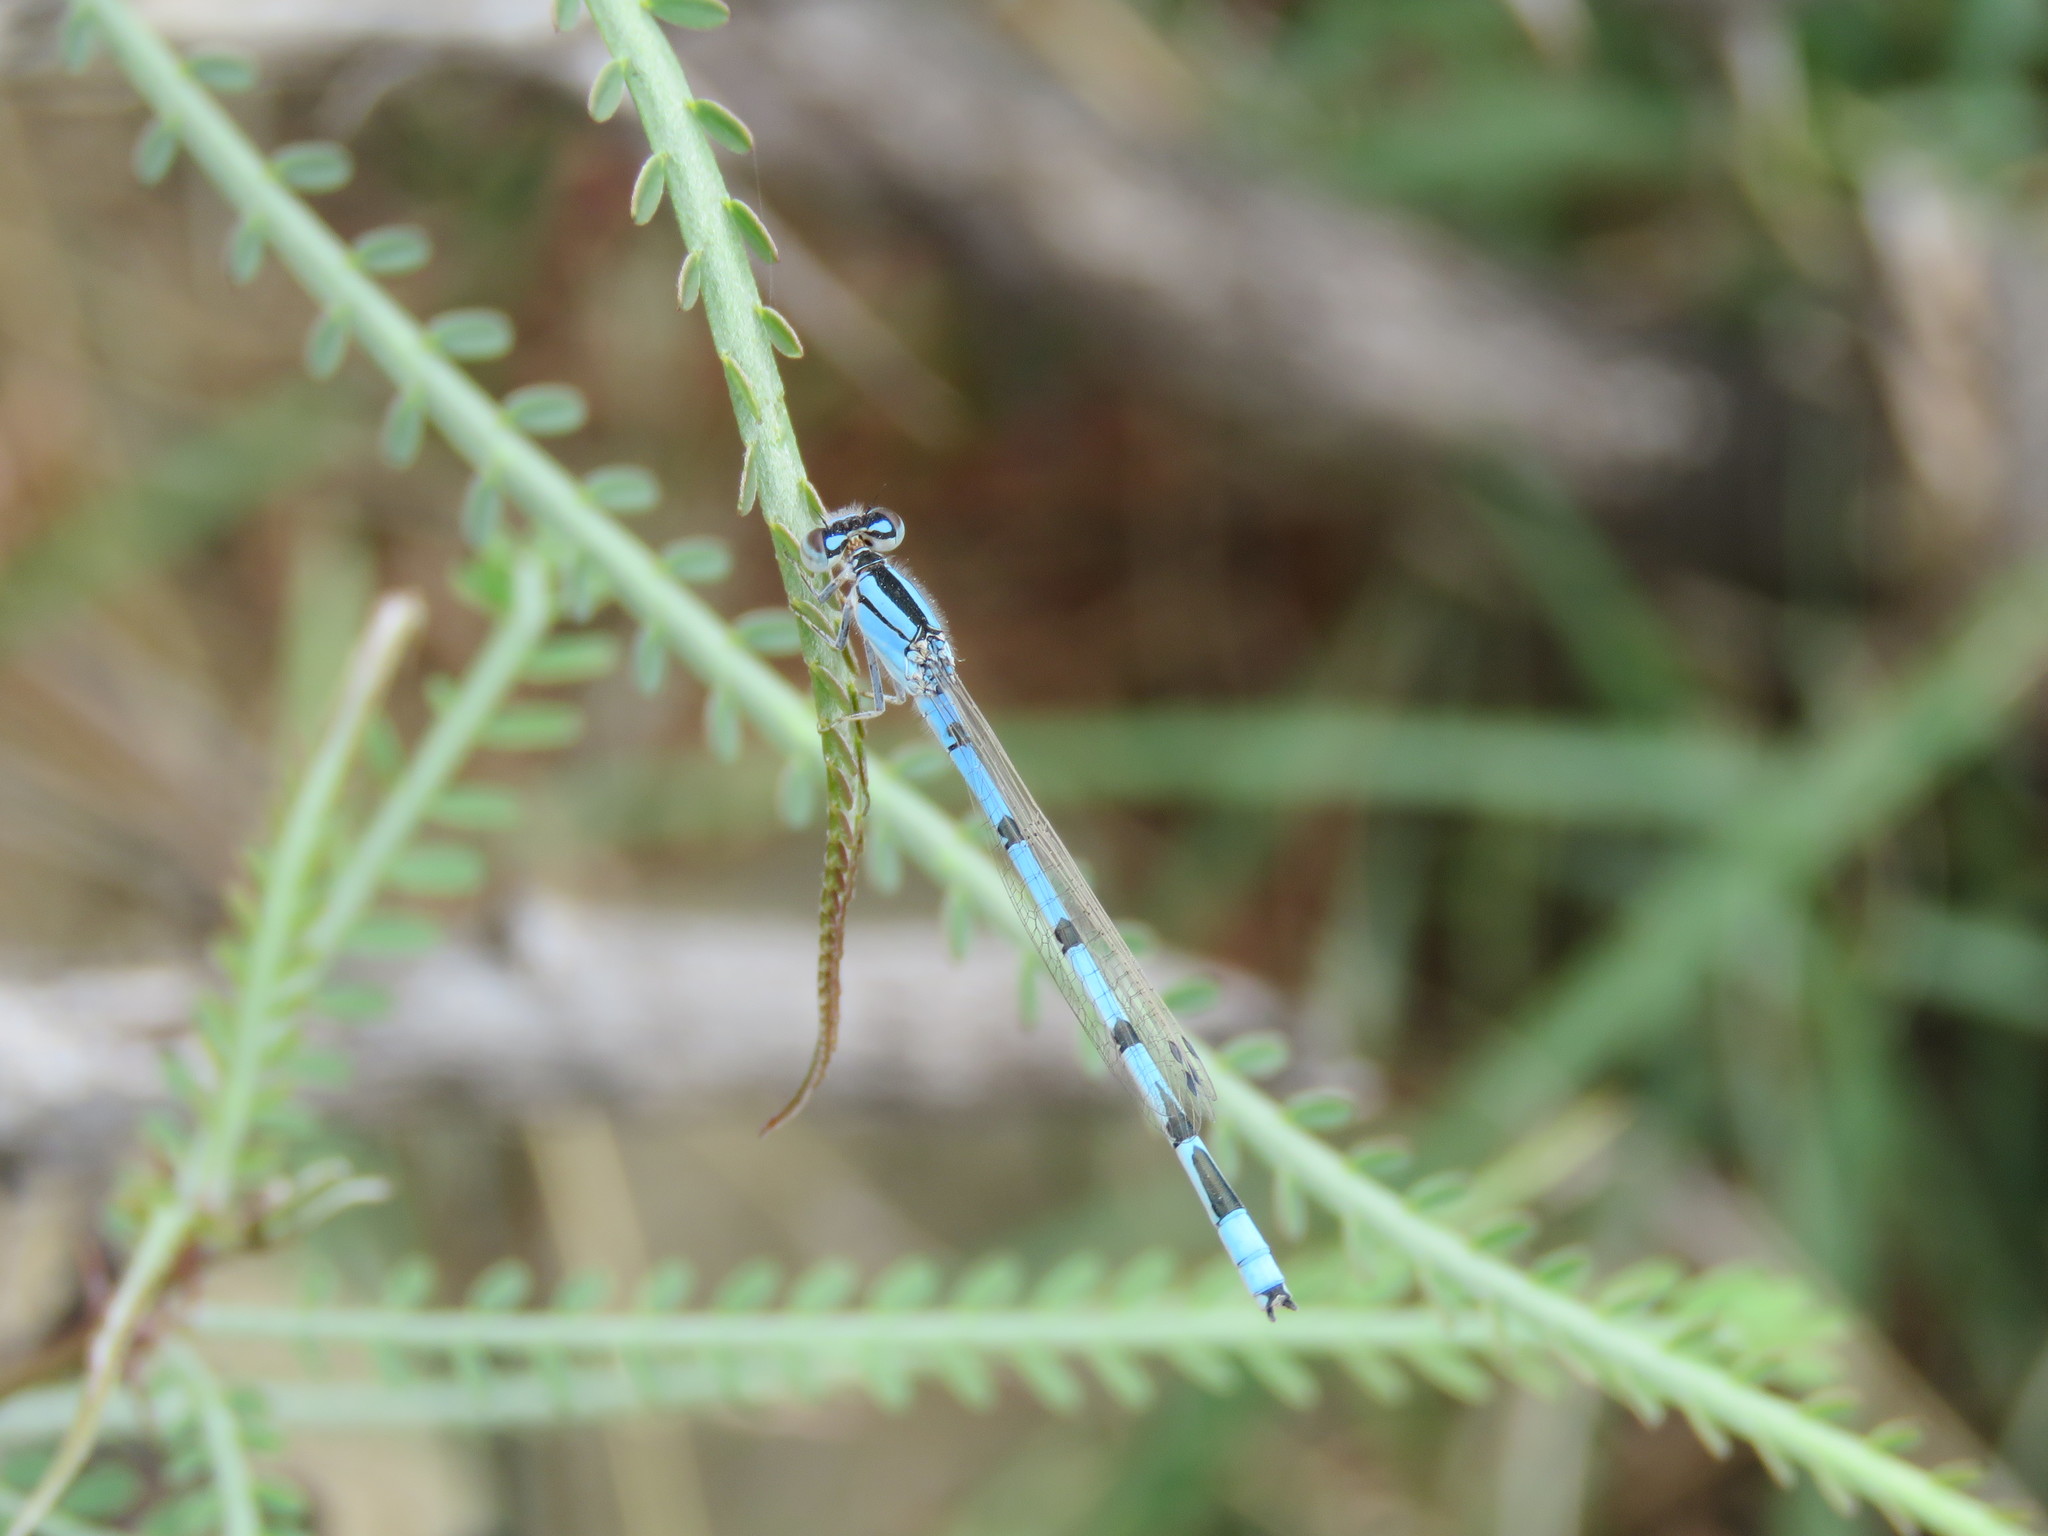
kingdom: Animalia
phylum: Arthropoda
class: Insecta
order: Odonata
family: Coenagrionidae
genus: Enallagma
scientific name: Enallagma civile
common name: Damselfly
